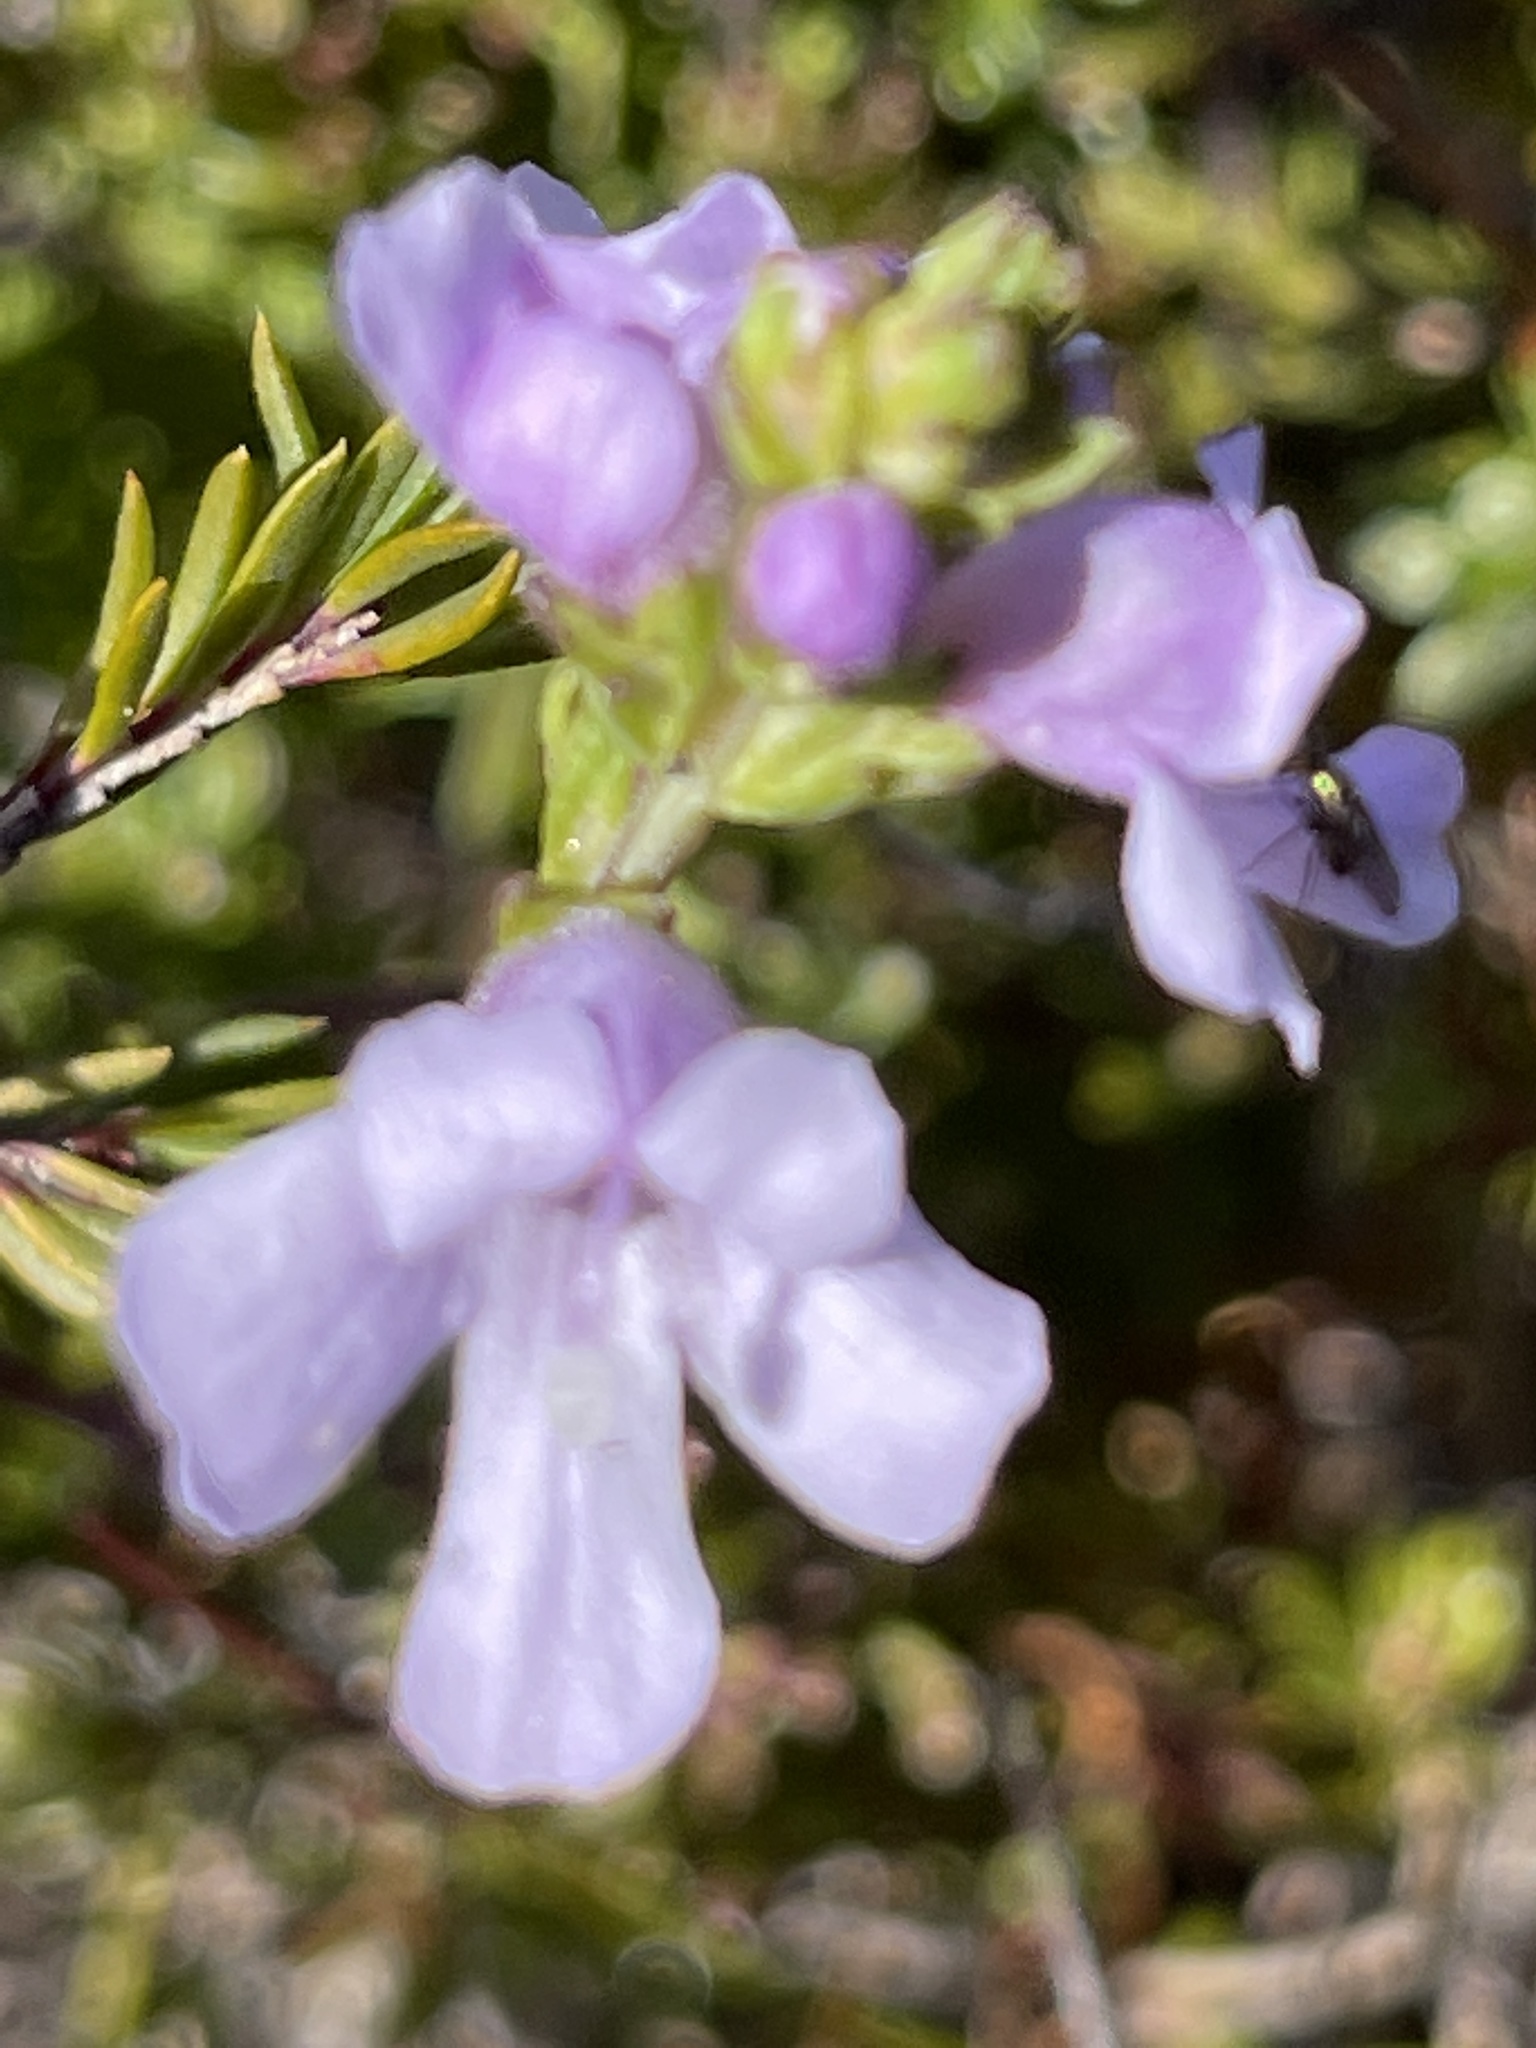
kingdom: Plantae
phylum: Tracheophyta
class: Magnoliopsida
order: Lamiales
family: Orobanchaceae
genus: Euphrasia
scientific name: Euphrasia collina
